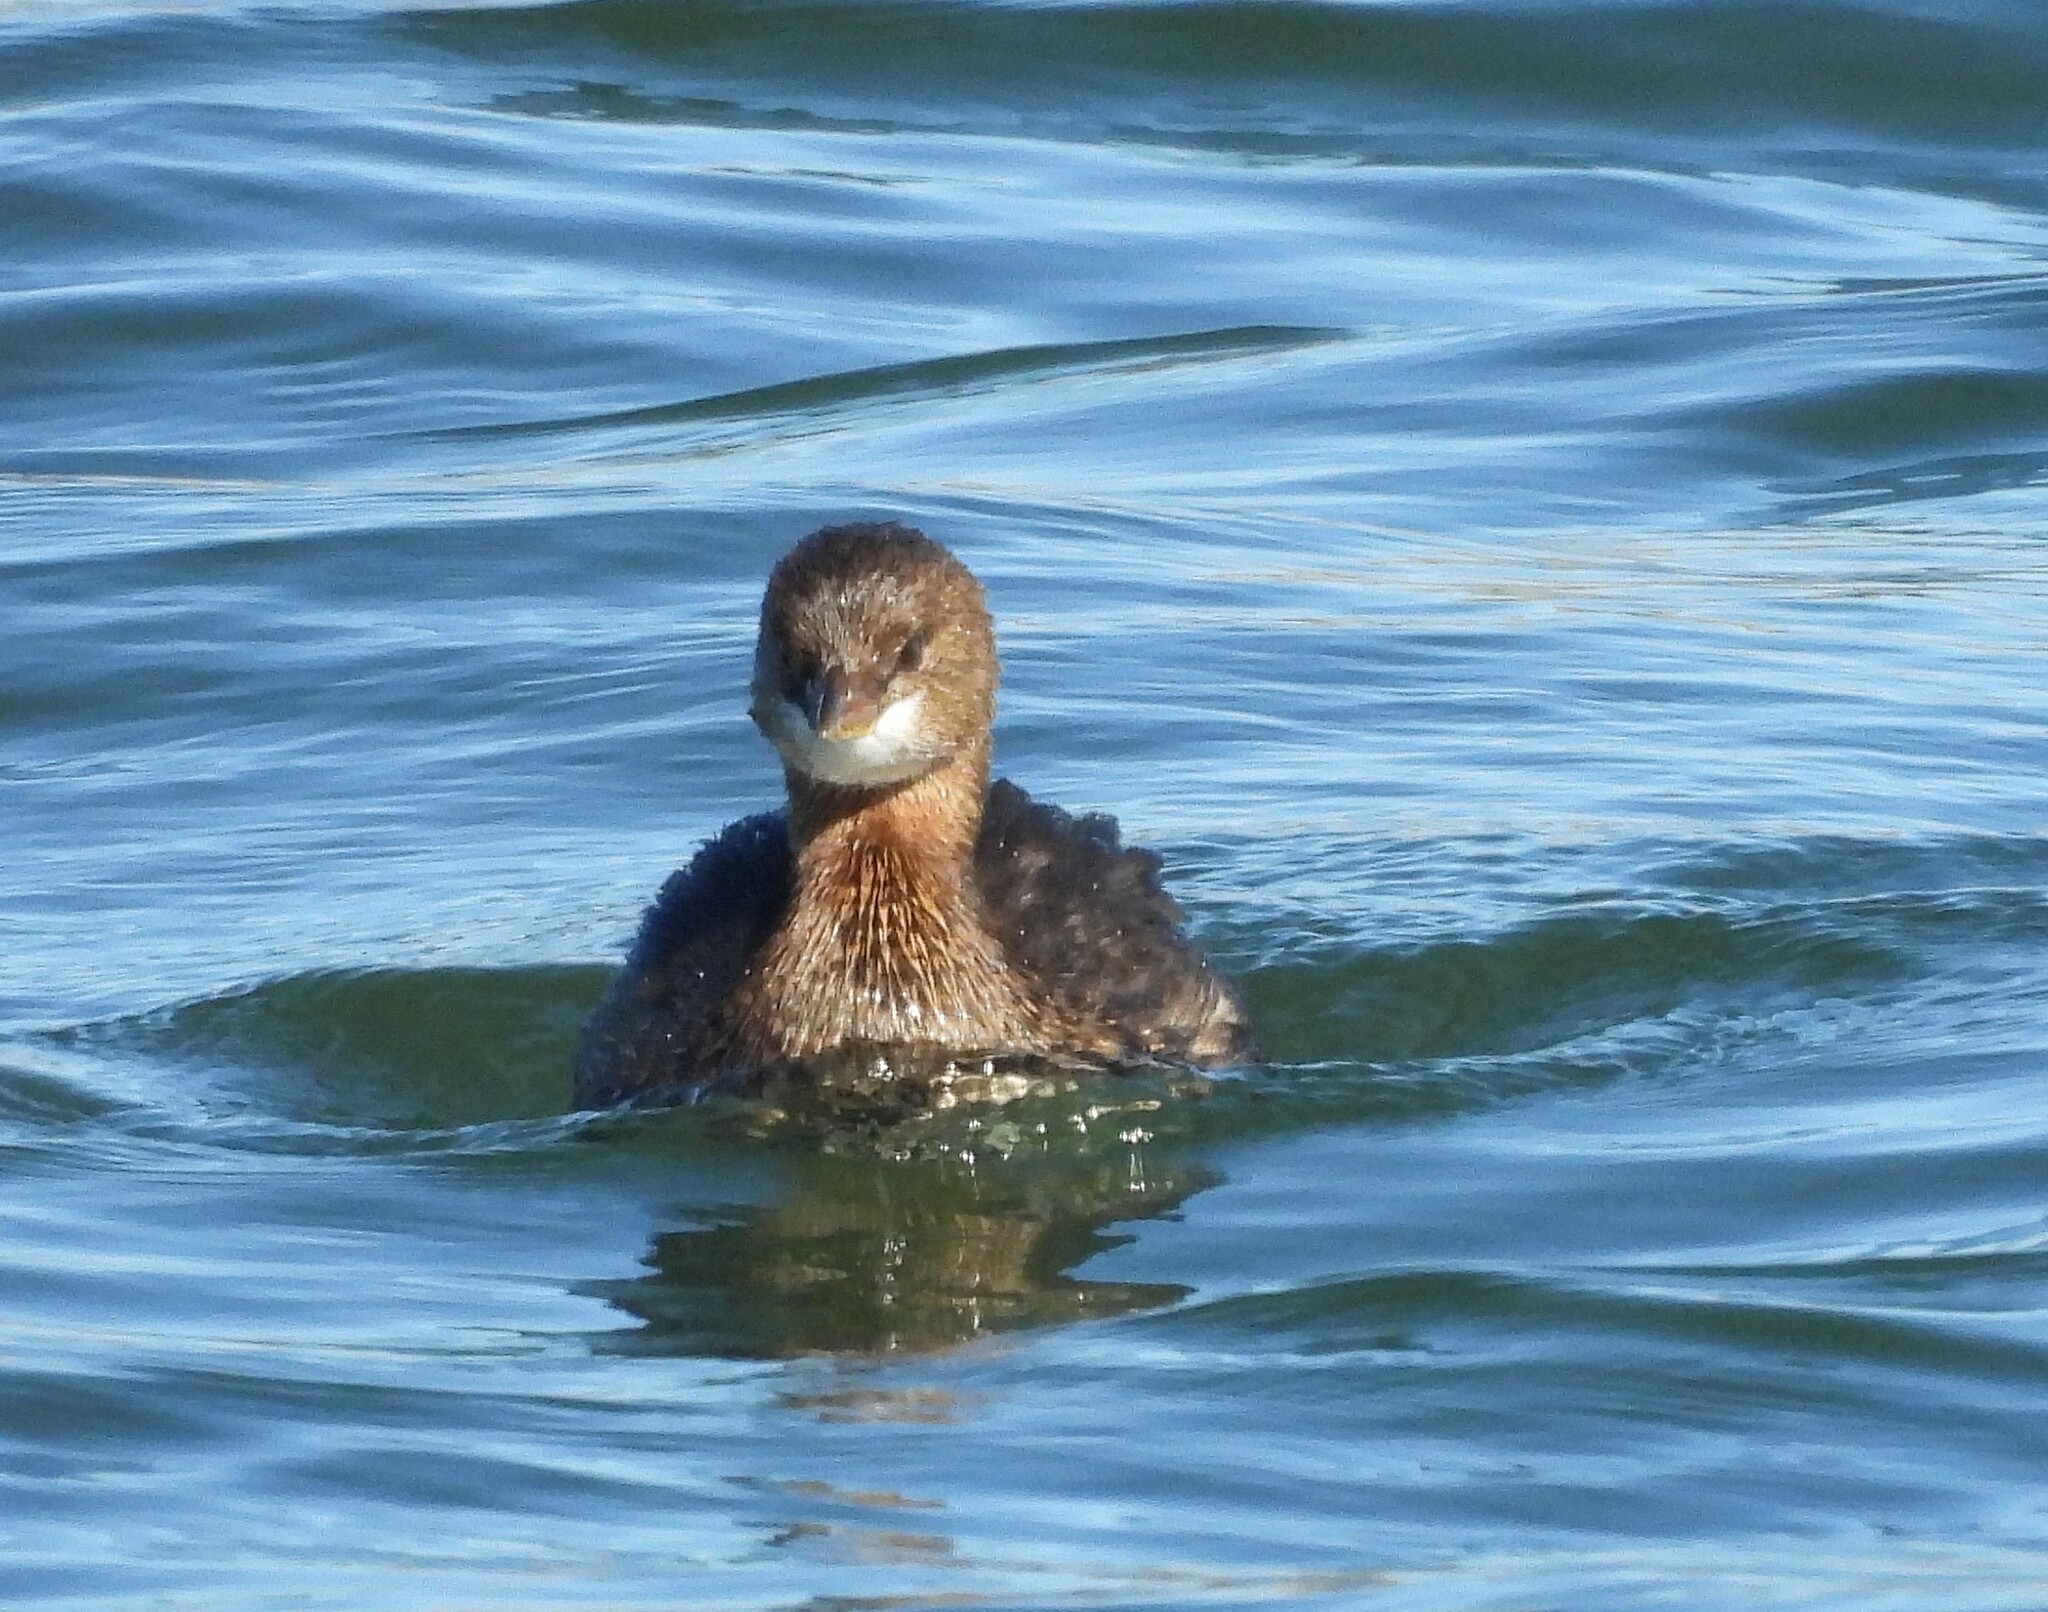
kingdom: Animalia
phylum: Chordata
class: Aves
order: Podicipediformes
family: Podicipedidae
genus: Podilymbus
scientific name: Podilymbus podiceps
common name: Pied-billed grebe
